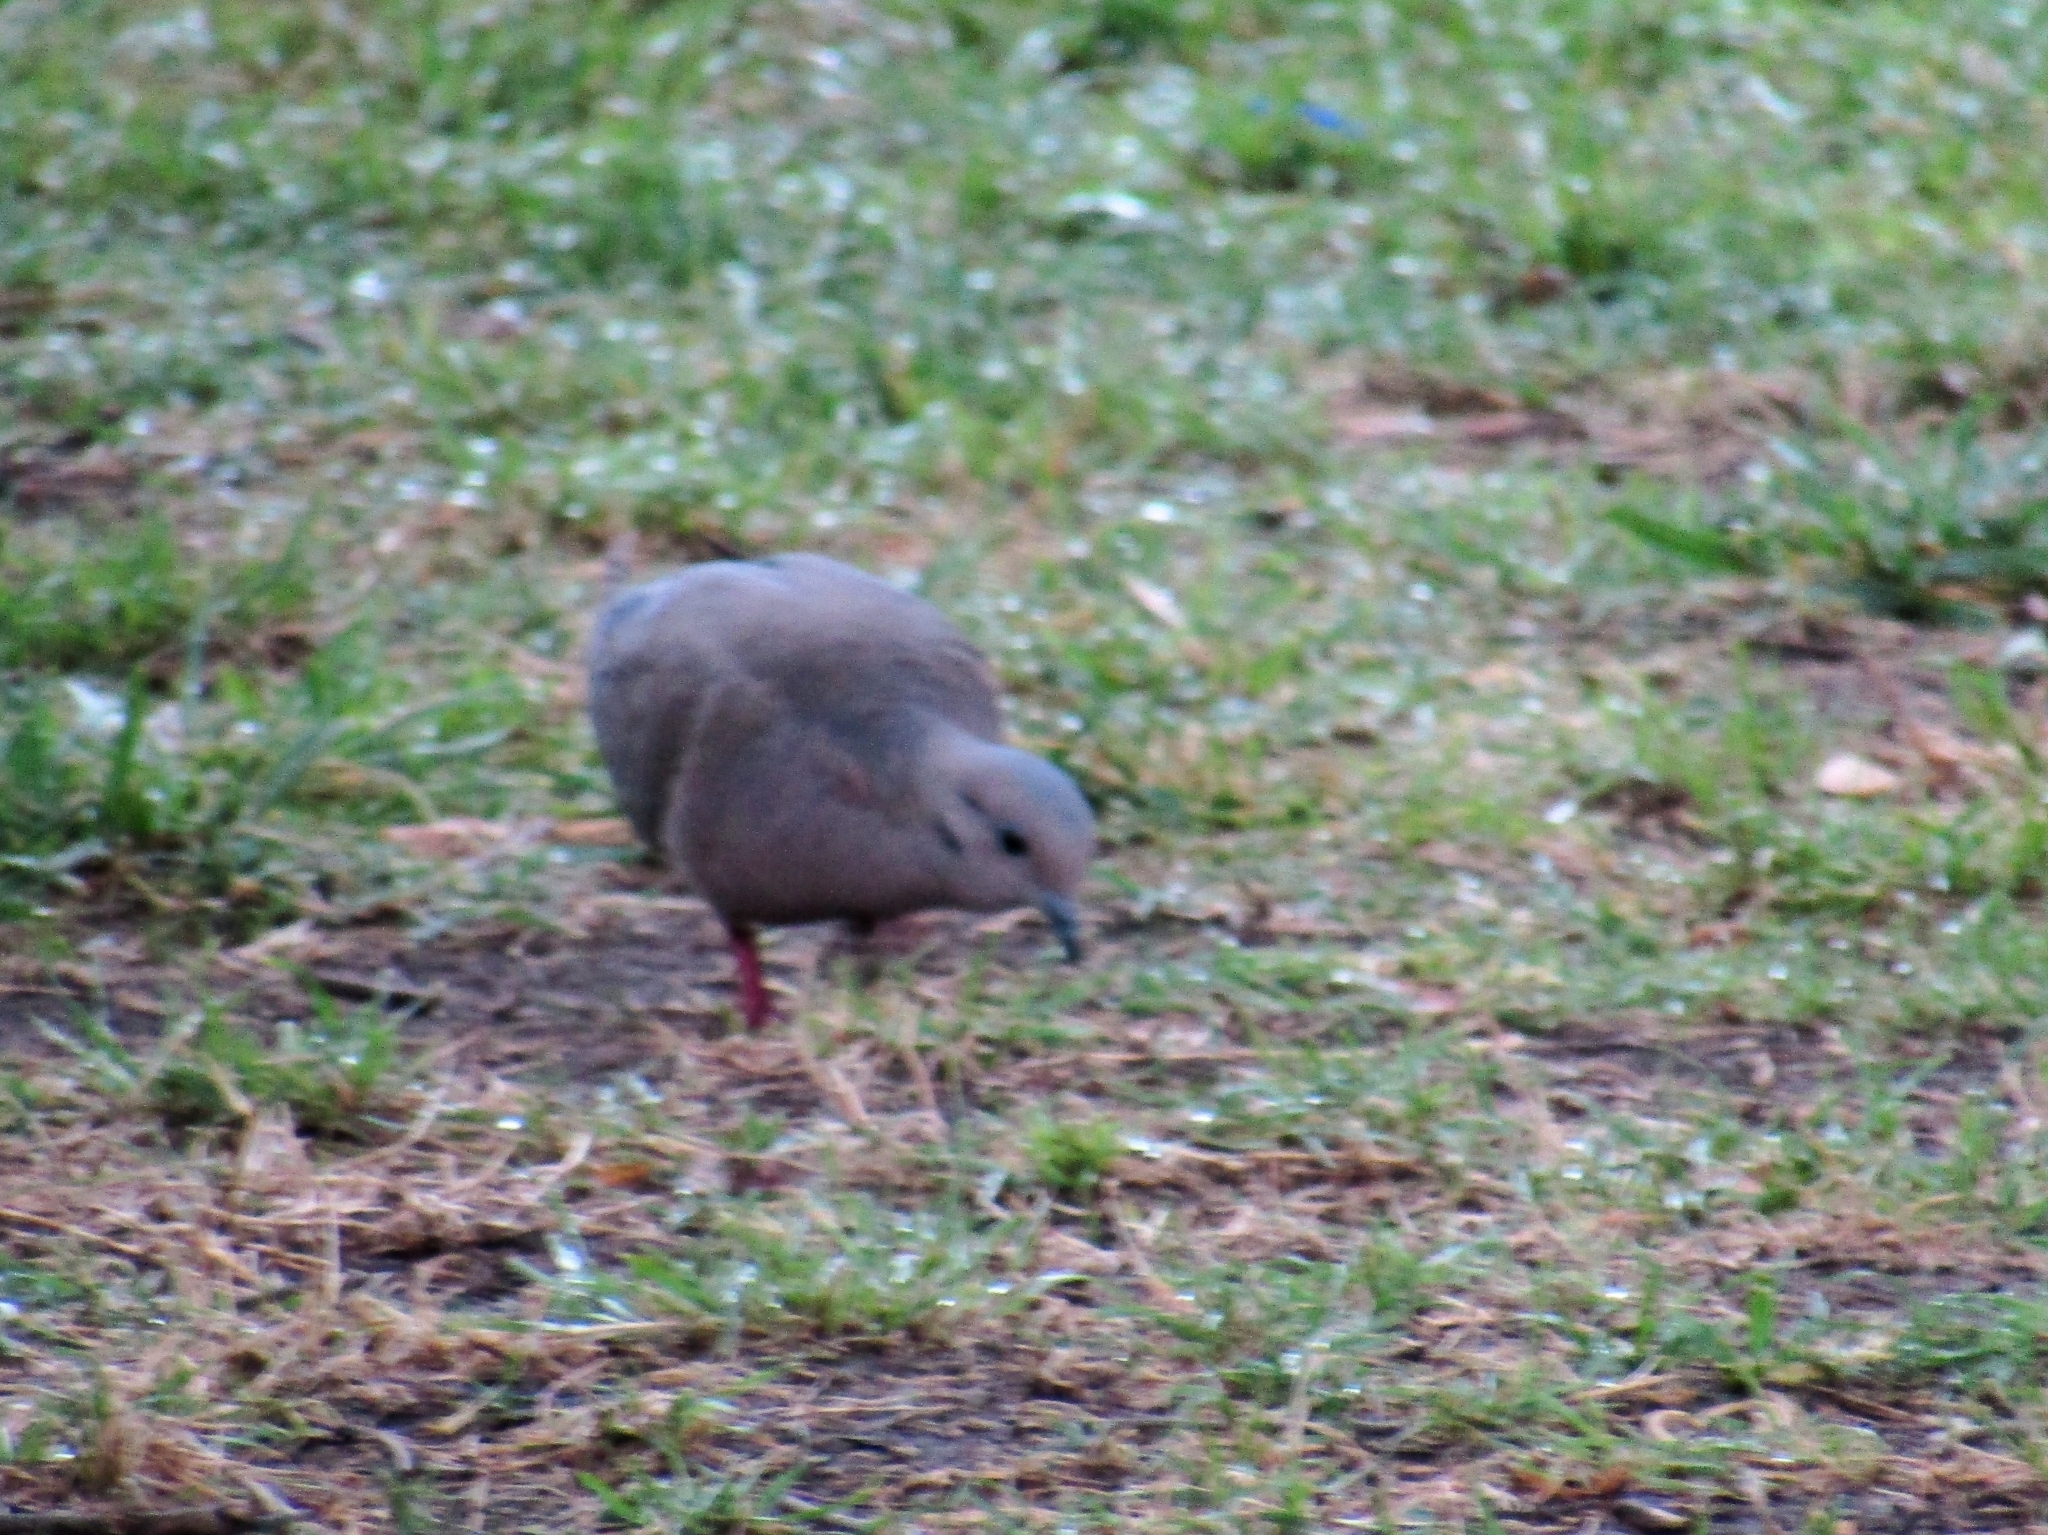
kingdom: Animalia
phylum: Chordata
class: Aves
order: Columbiformes
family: Columbidae
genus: Zenaida
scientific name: Zenaida auriculata
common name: Eared dove
